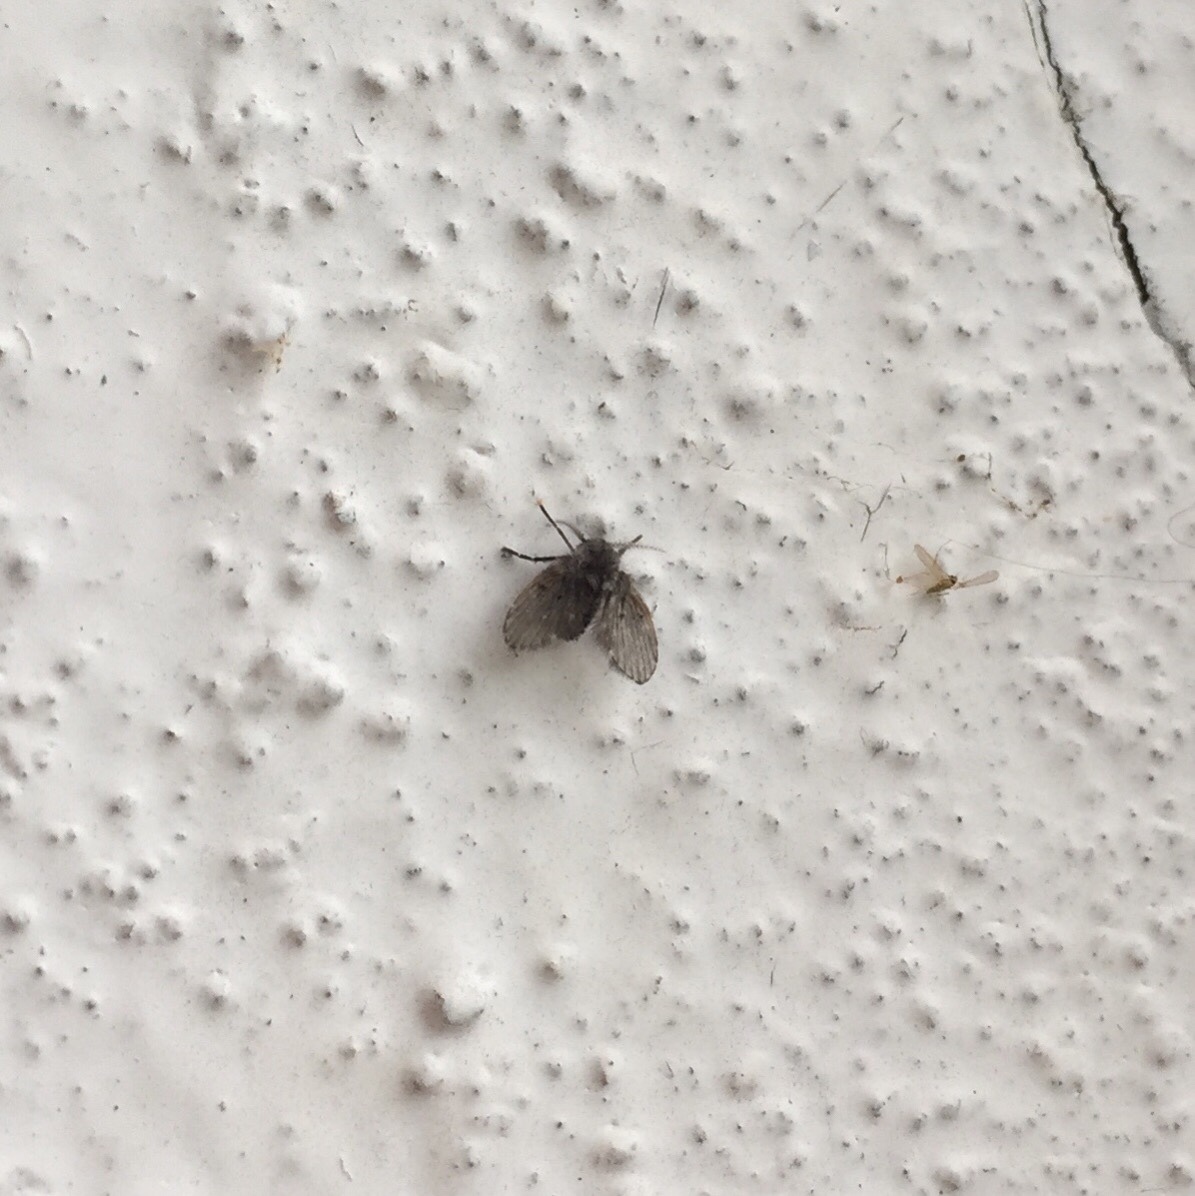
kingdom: Animalia
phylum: Arthropoda
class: Insecta
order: Diptera
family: Psychodidae
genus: Clogmia
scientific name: Clogmia albipunctatus
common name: White-spotted moth fly
